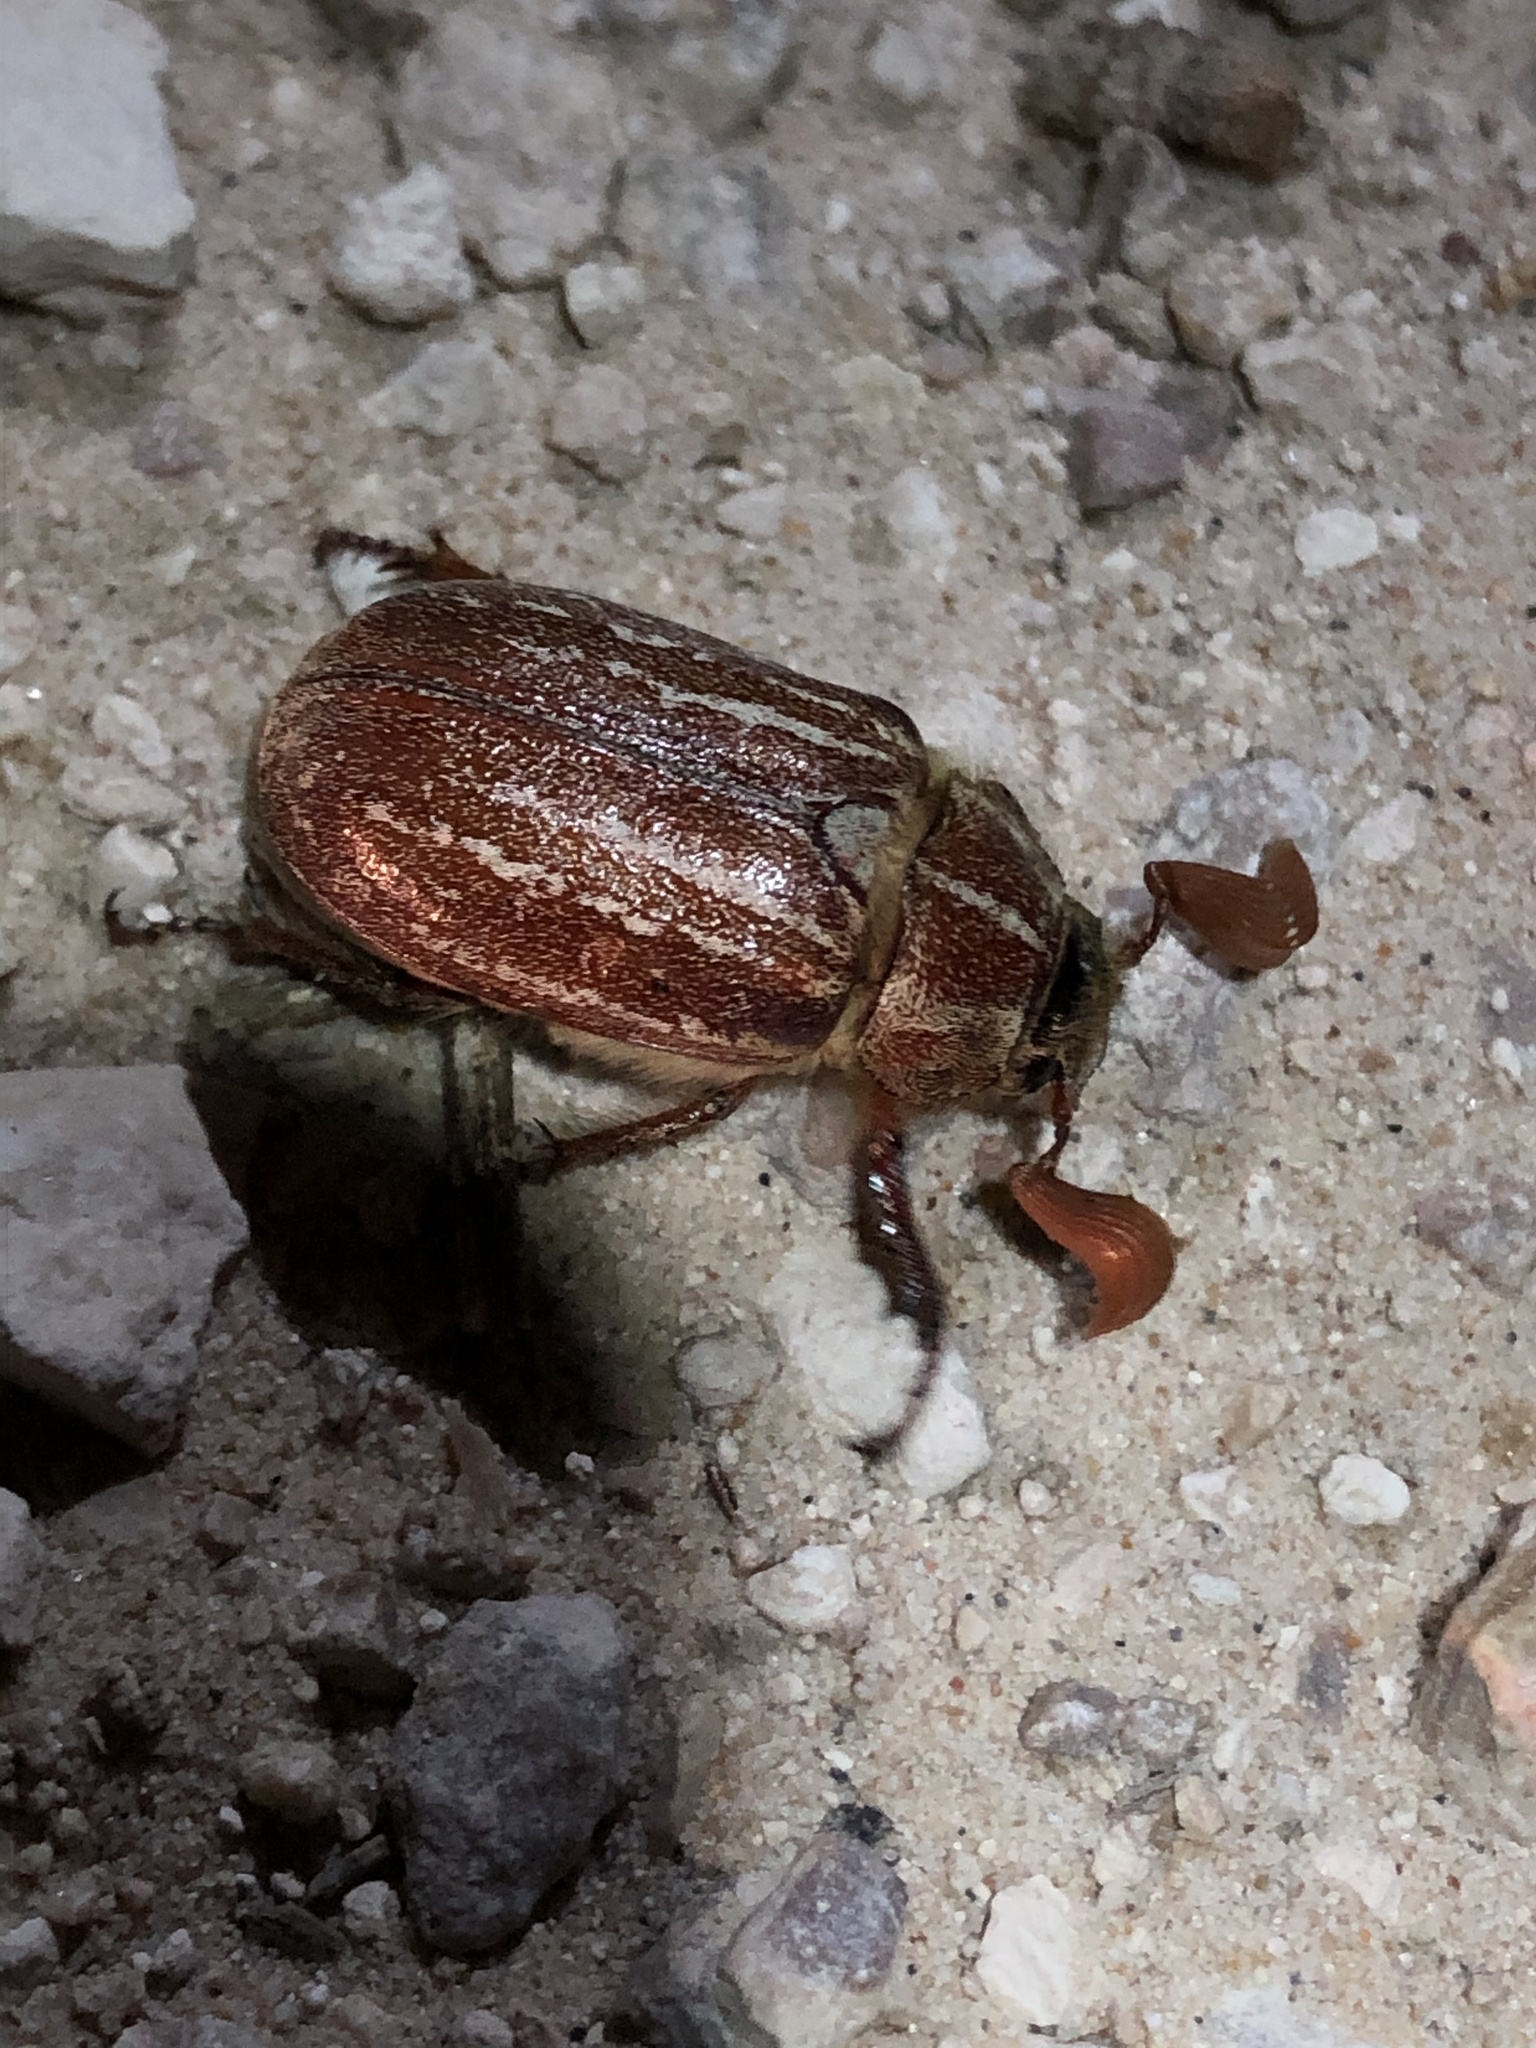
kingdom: Animalia
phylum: Arthropoda
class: Insecta
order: Coleoptera
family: Scarabaeidae
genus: Polyphylla
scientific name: Polyphylla mescalerensis
